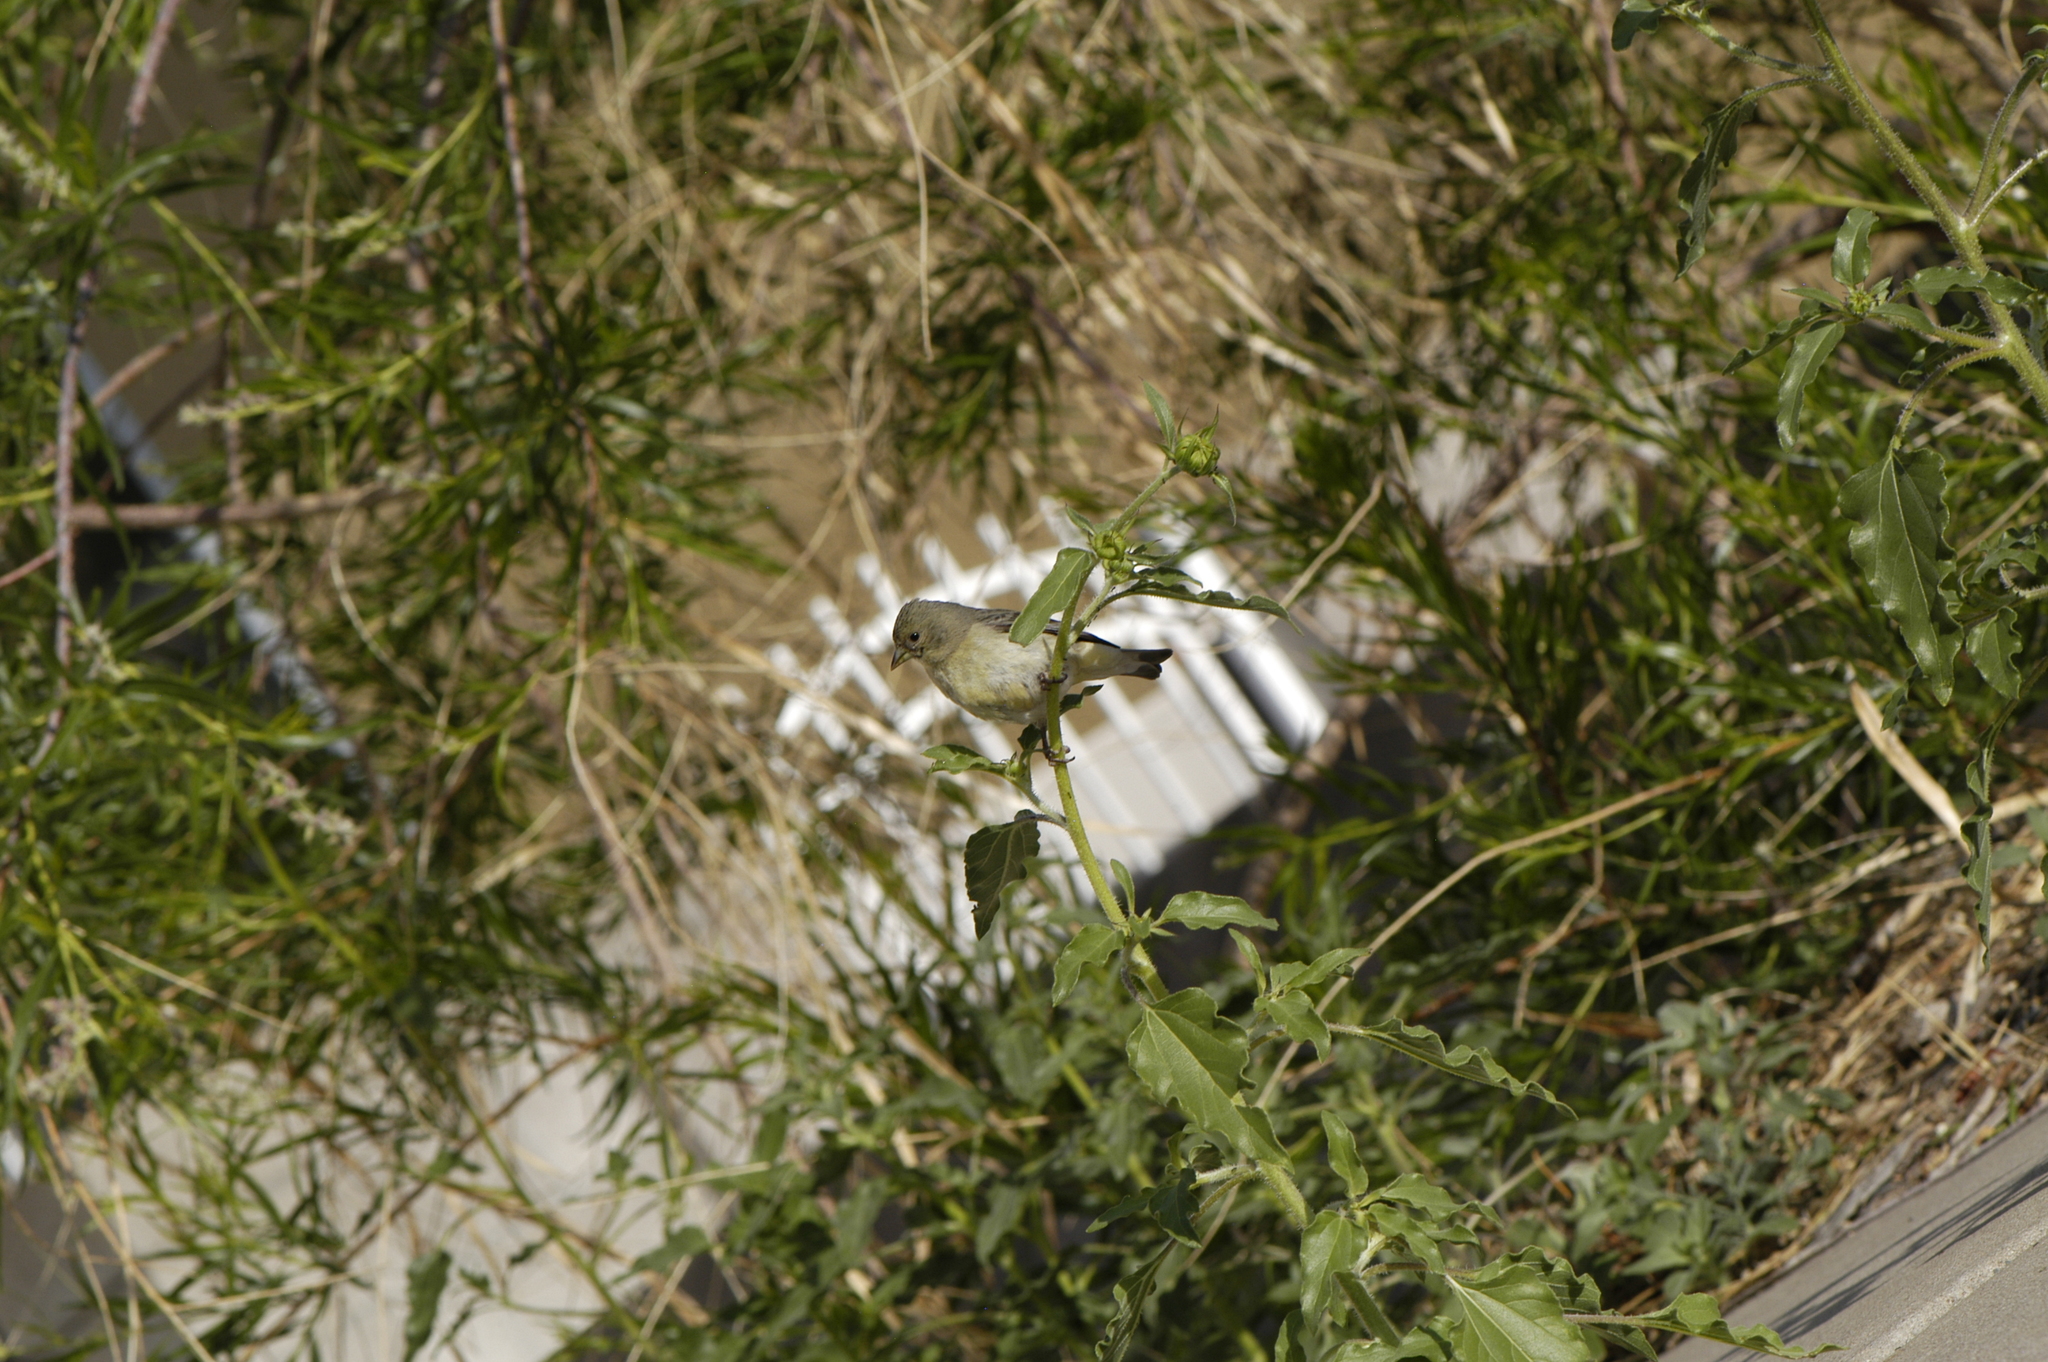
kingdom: Animalia
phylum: Chordata
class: Aves
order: Passeriformes
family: Fringillidae
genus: Spinus
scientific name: Spinus psaltria
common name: Lesser goldfinch
